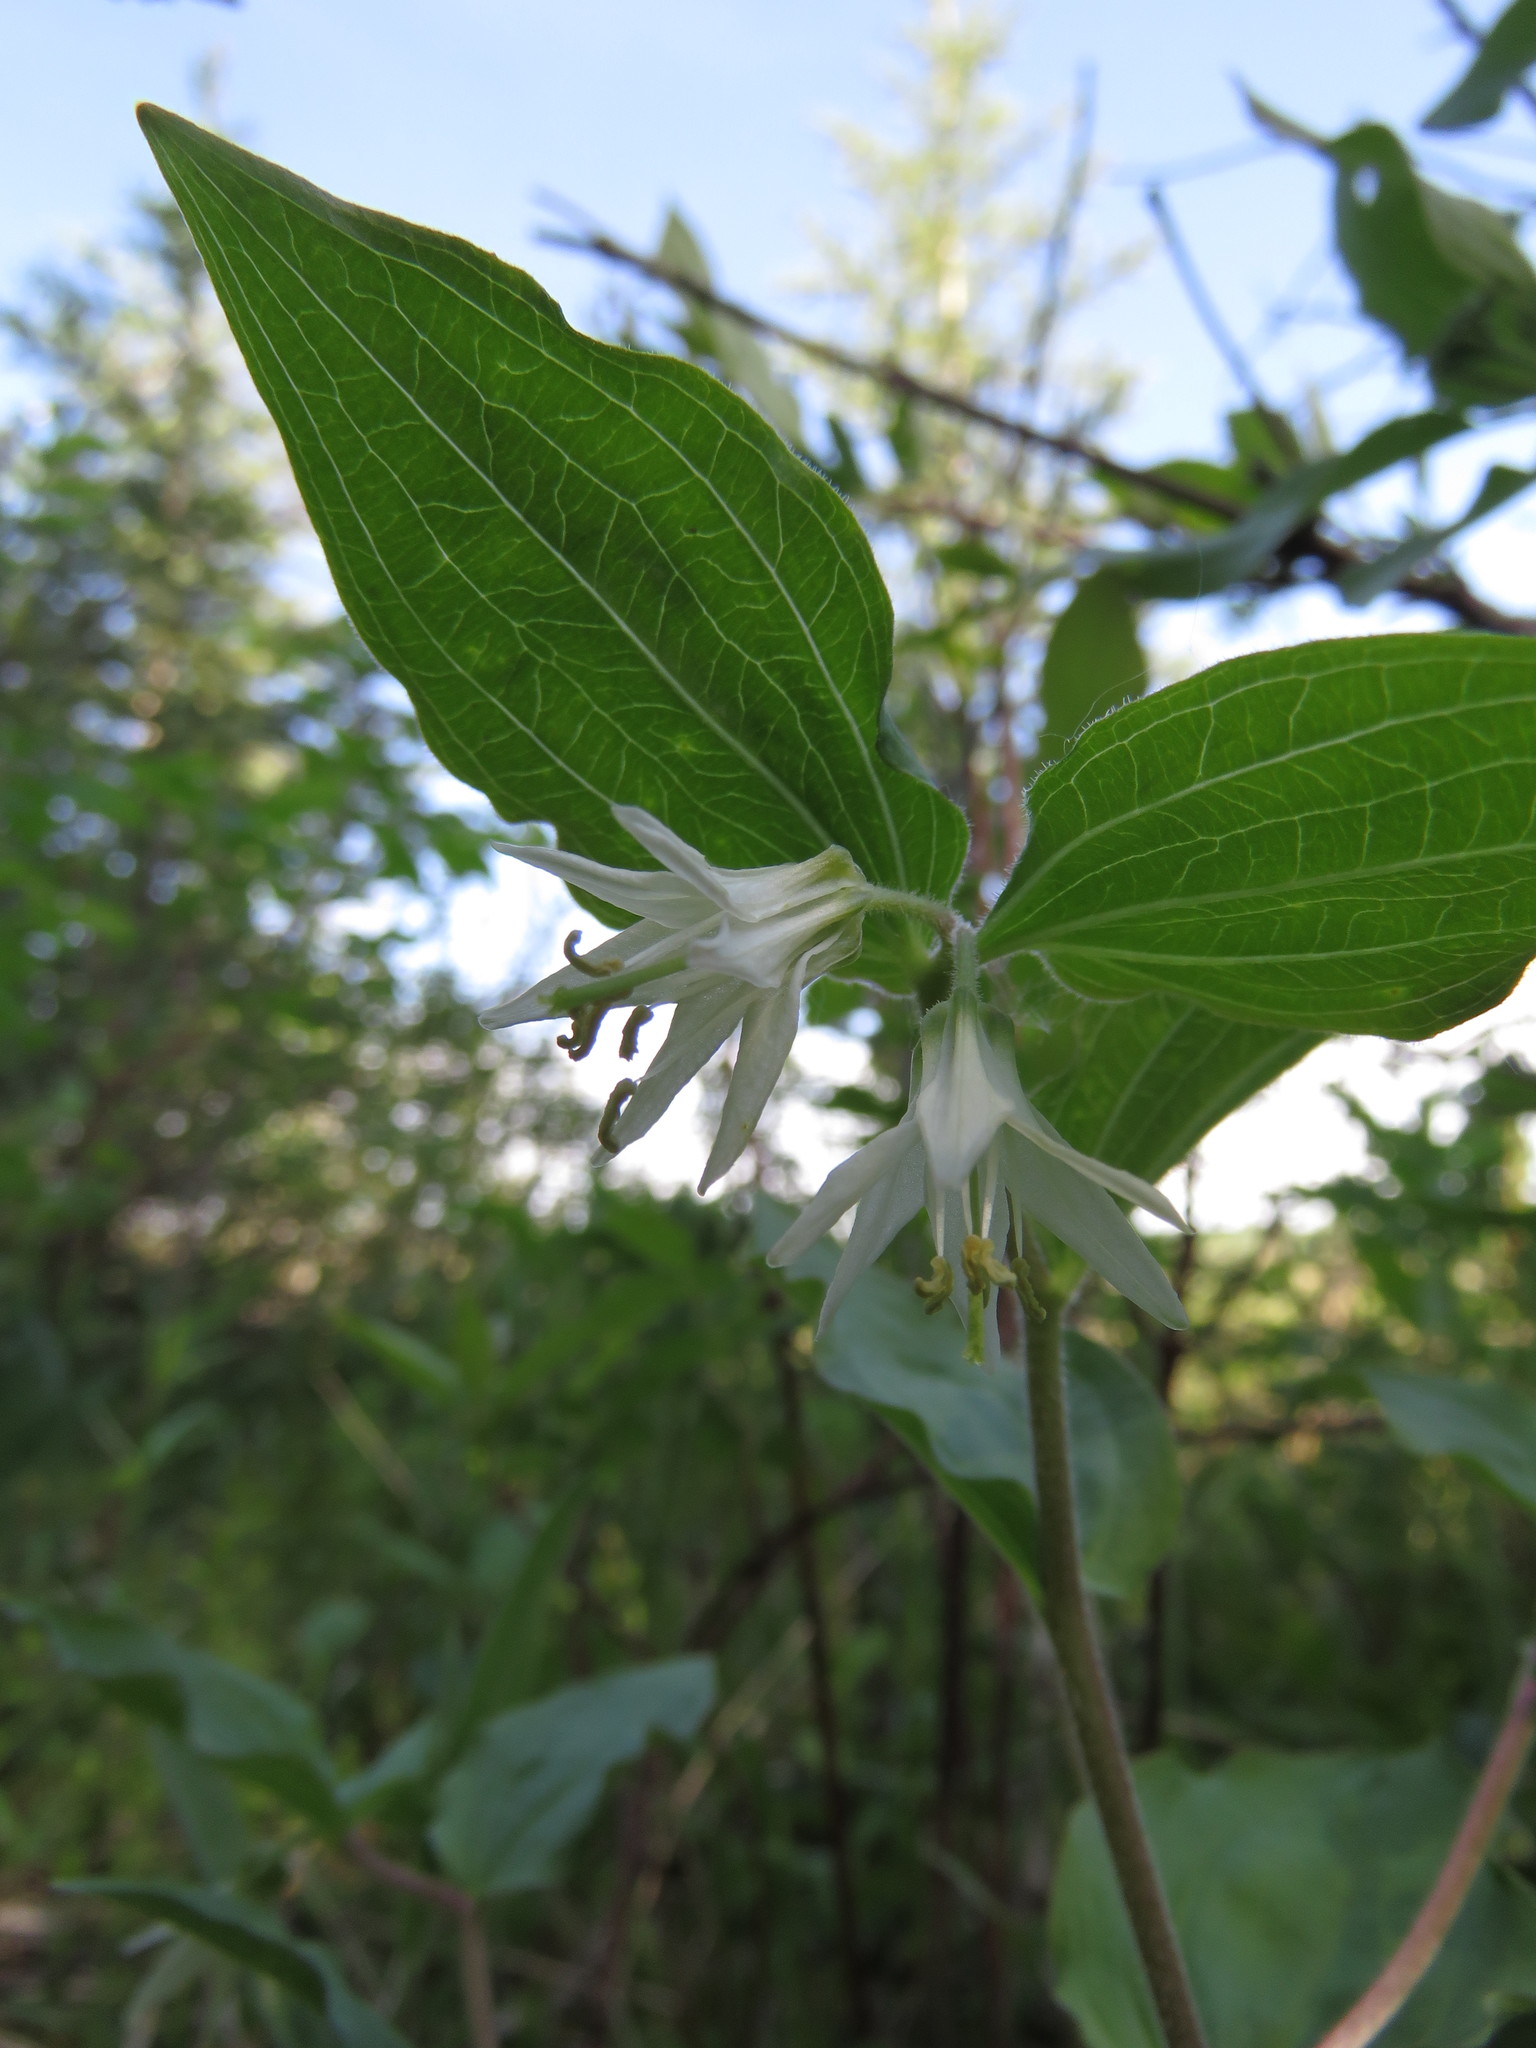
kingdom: Plantae
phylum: Tracheophyta
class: Liliopsida
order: Liliales
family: Liliaceae
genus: Prosartes
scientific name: Prosartes trachycarpa
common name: Rough-fruit fairy-bells
